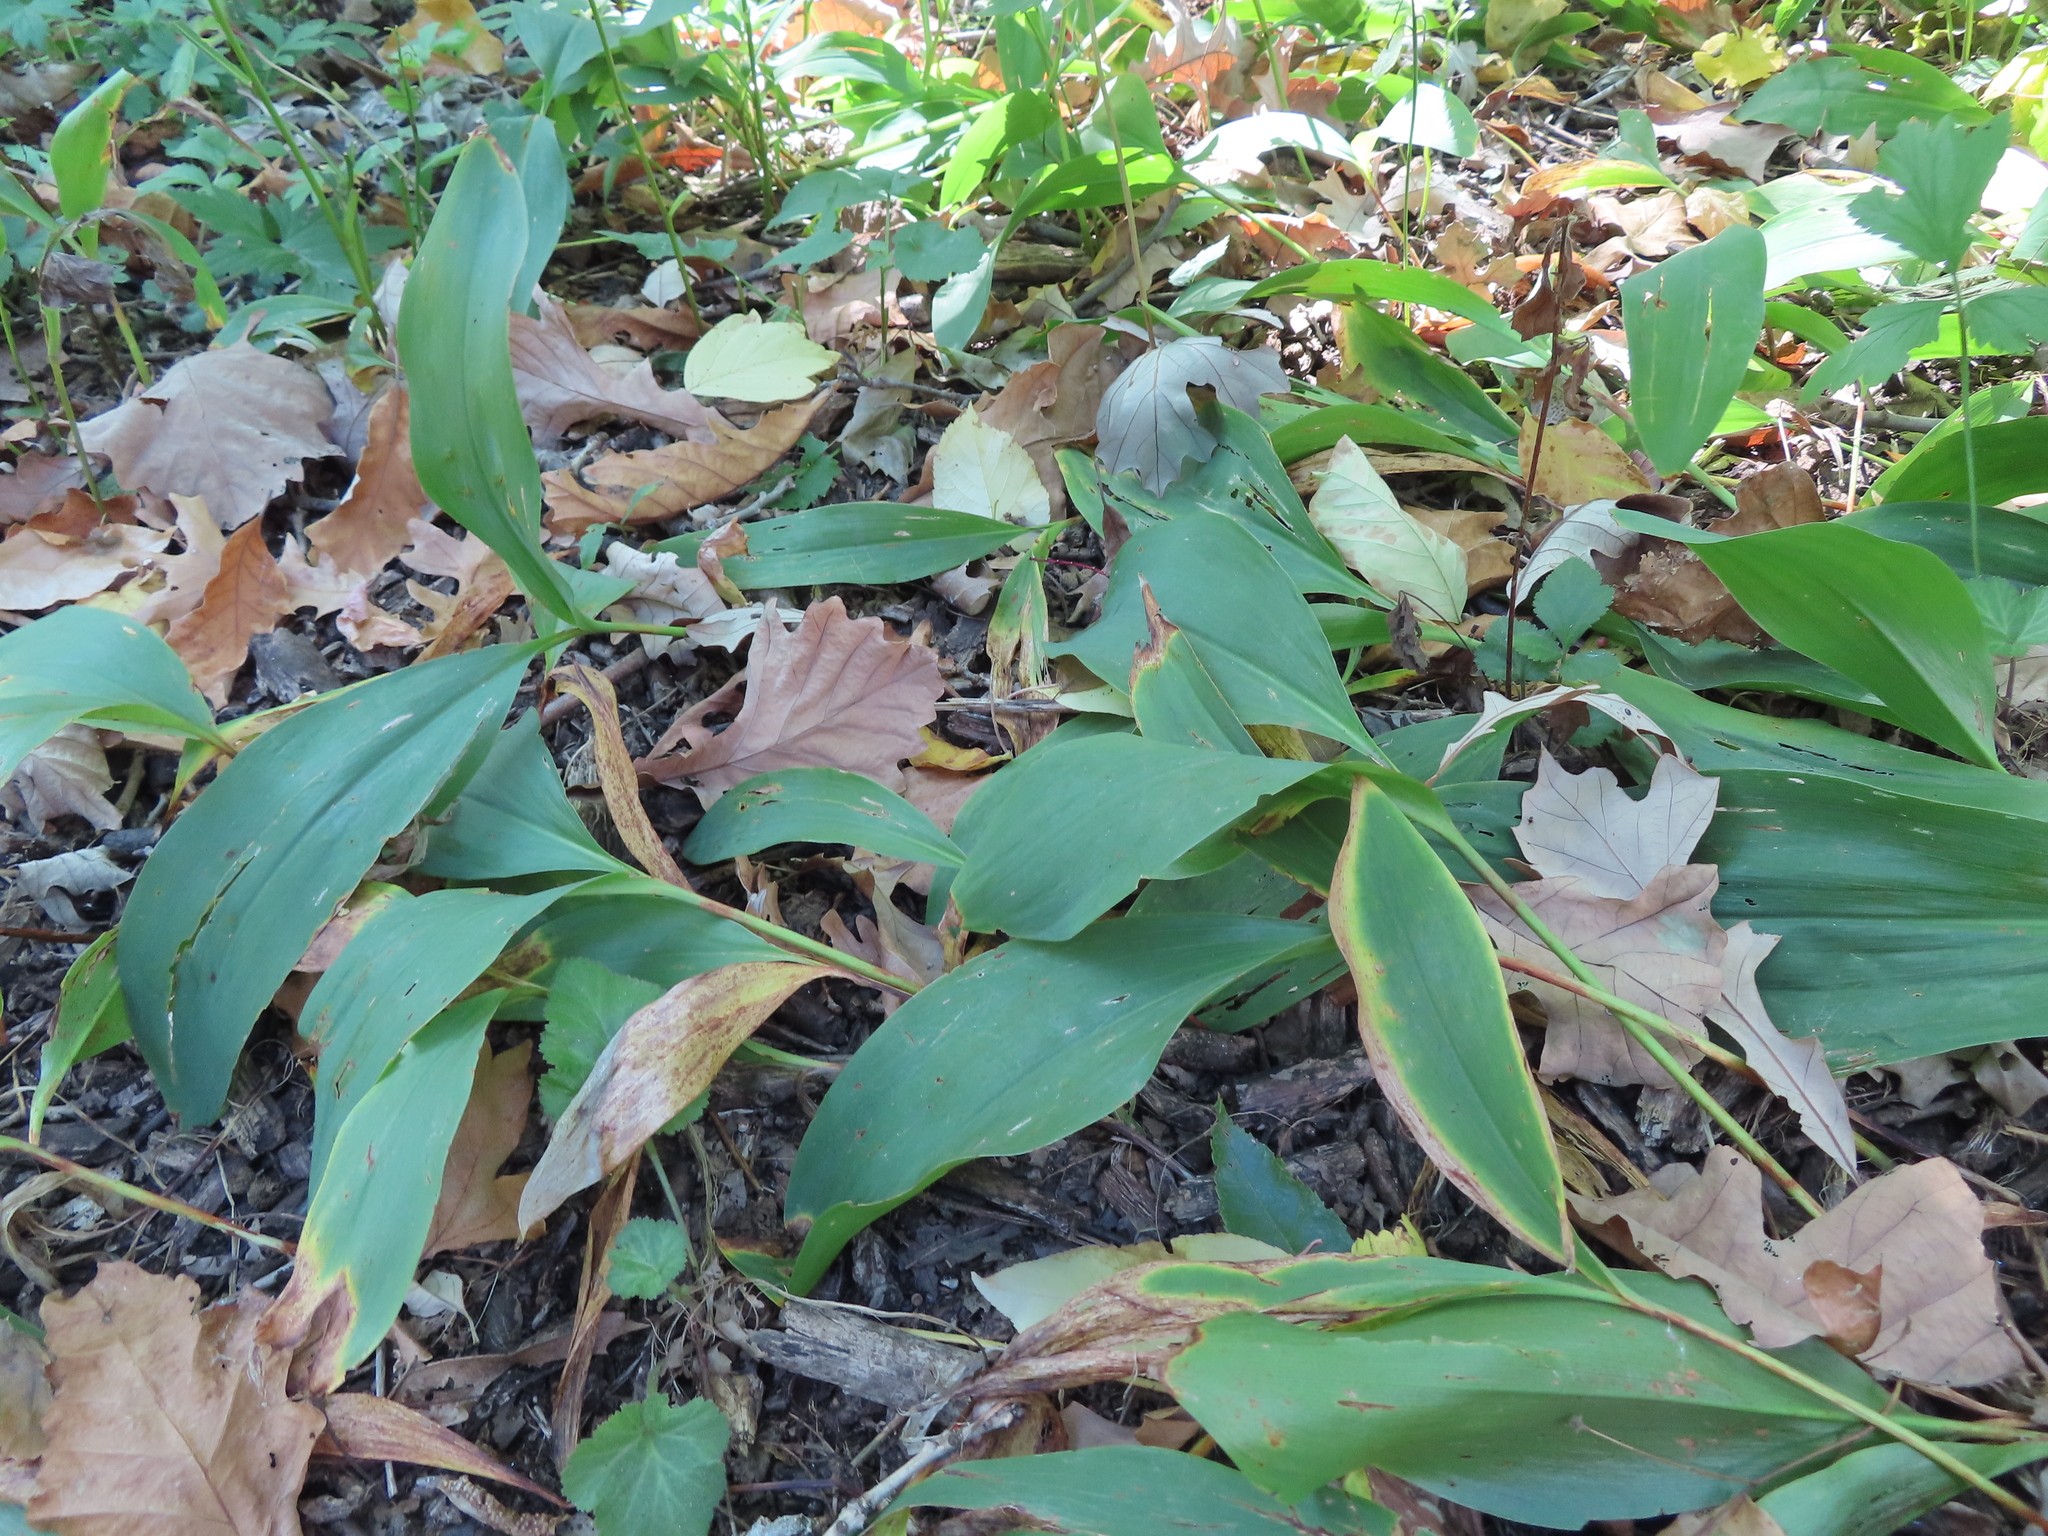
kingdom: Plantae
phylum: Tracheophyta
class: Liliopsida
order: Asparagales
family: Asparagaceae
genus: Convallaria
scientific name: Convallaria majalis
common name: Lily-of-the-valley
